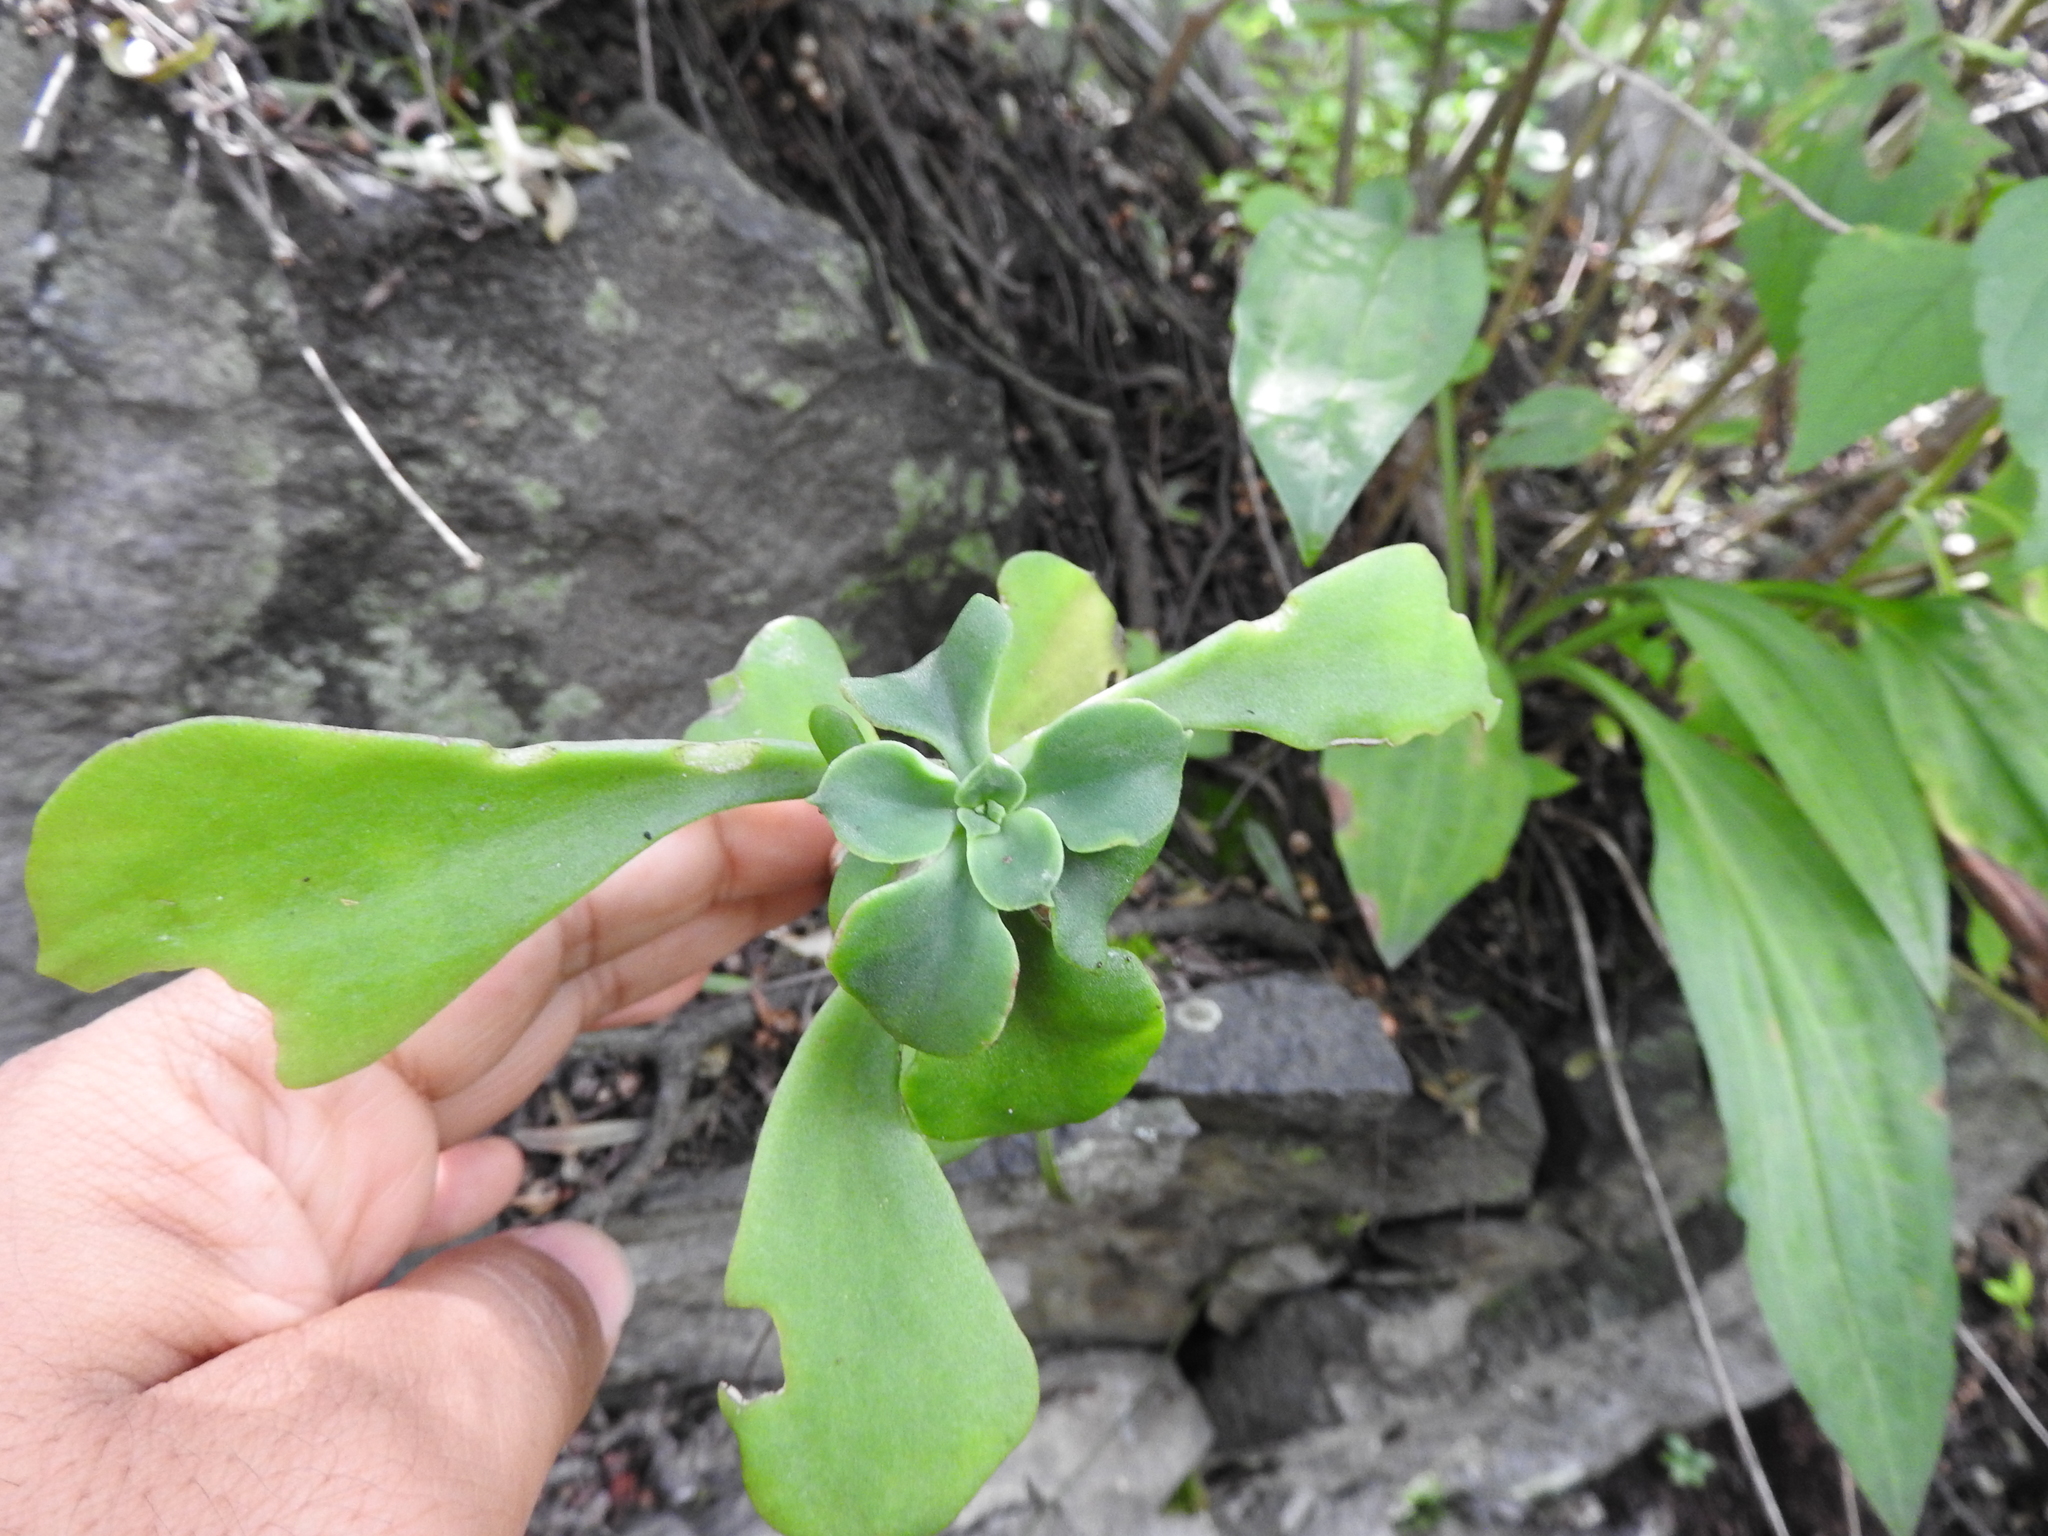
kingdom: Plantae
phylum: Tracheophyta
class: Magnoliopsida
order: Saxifragales
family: Crassulaceae
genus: Echeveria
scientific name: Echeveria chapalensis
